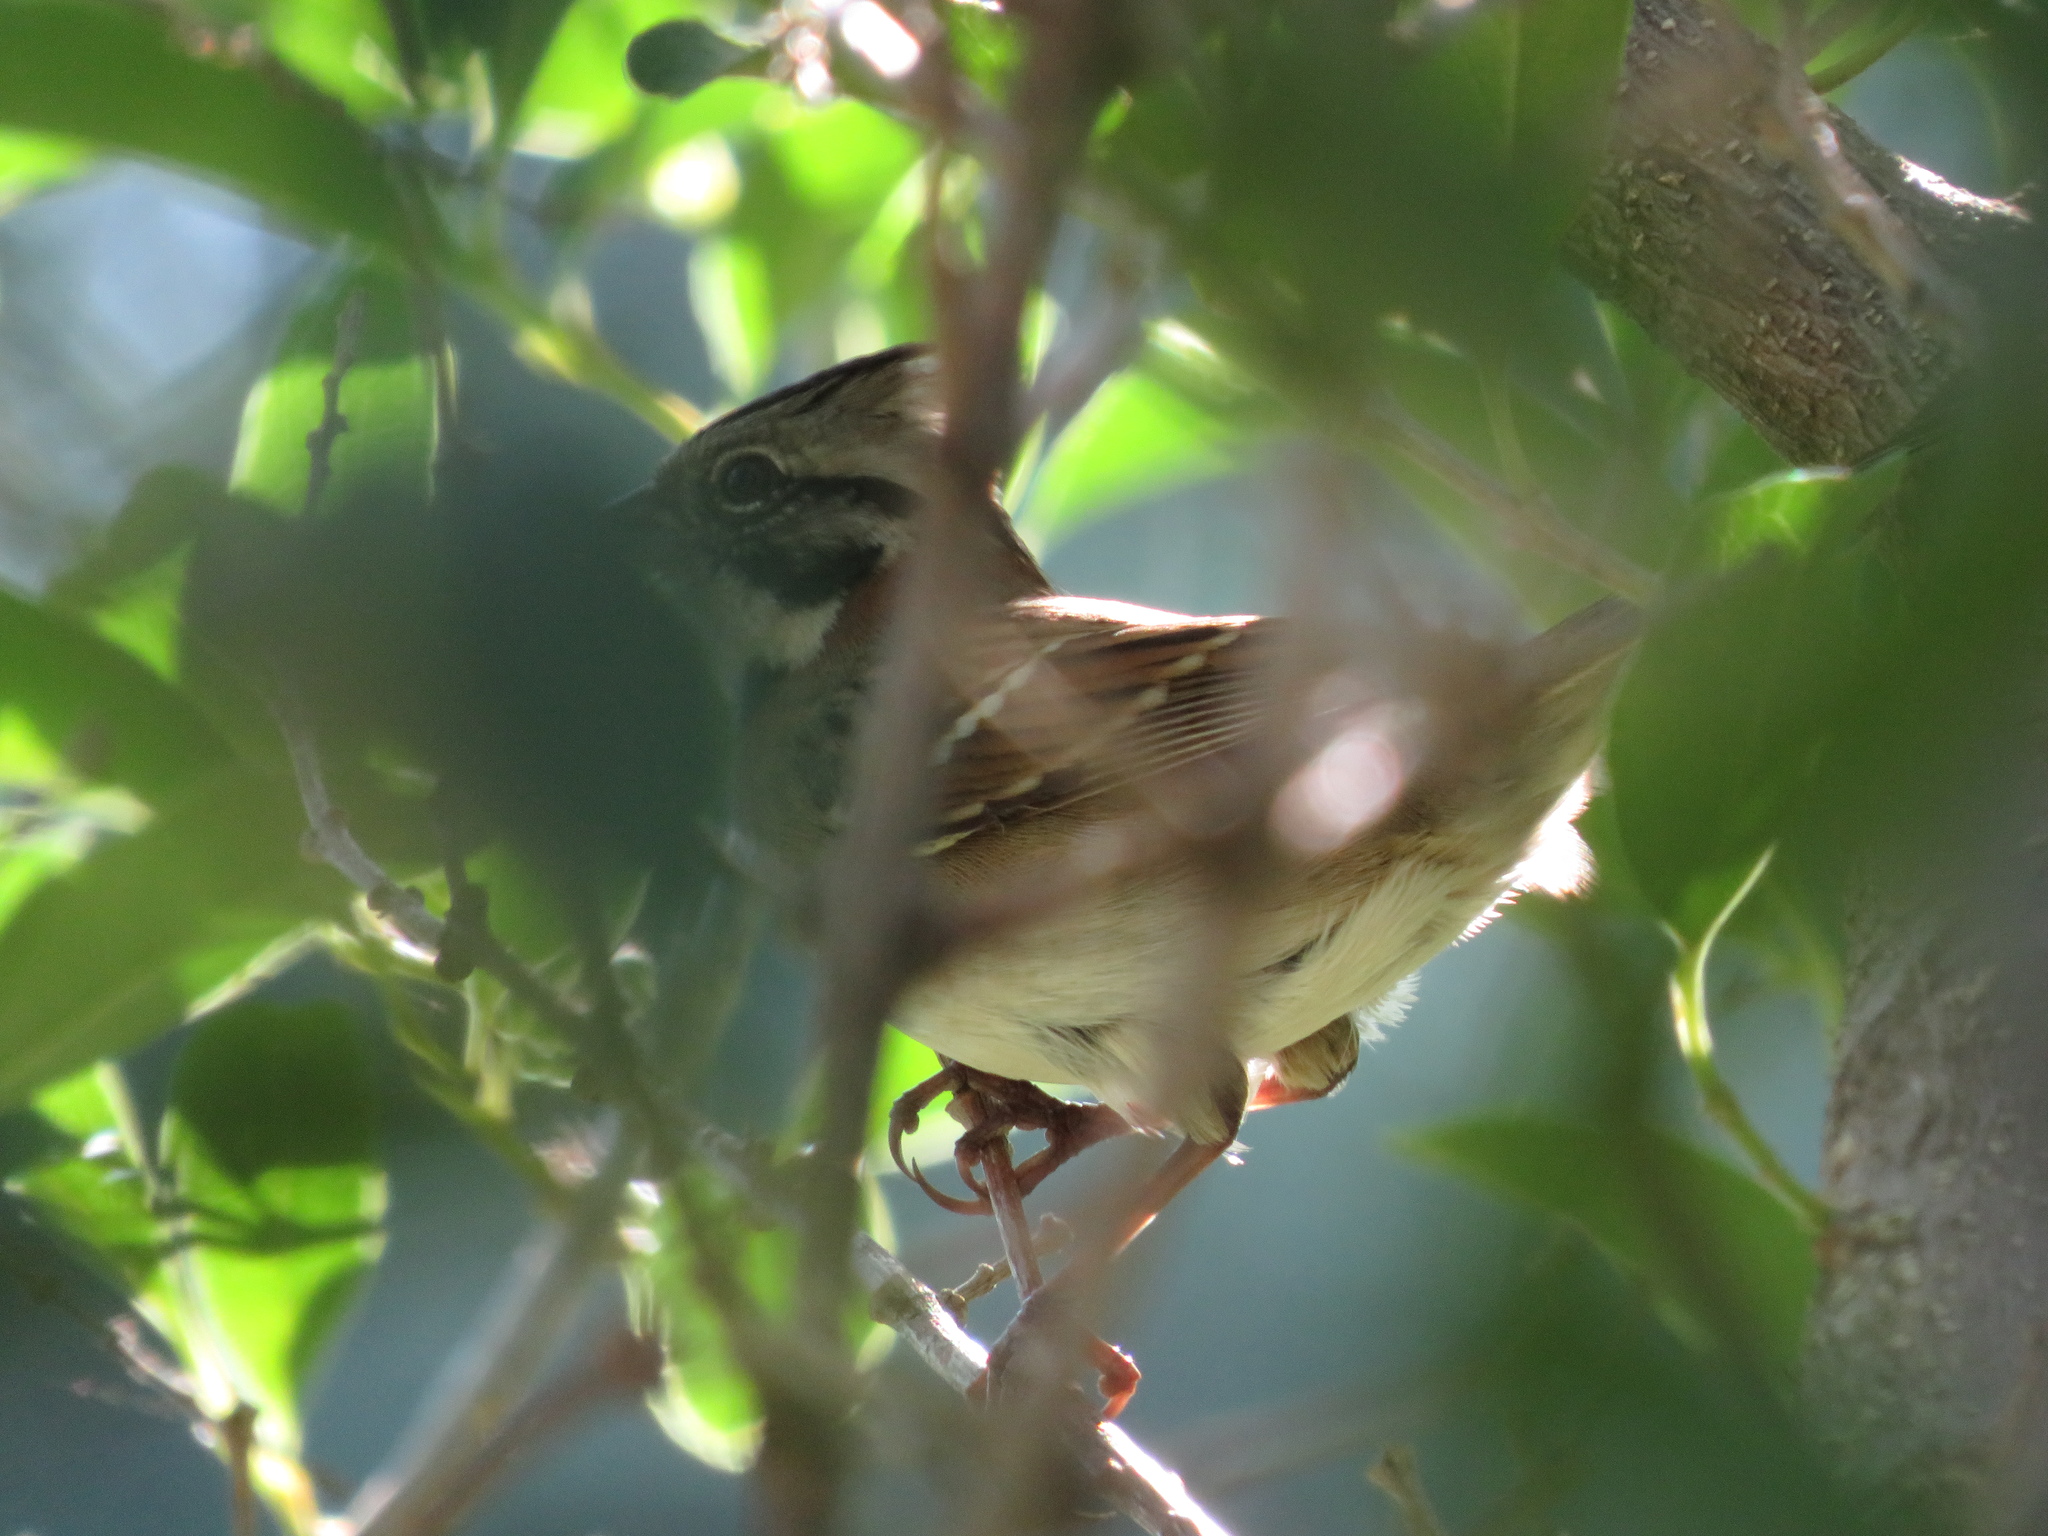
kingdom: Animalia
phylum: Chordata
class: Aves
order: Passeriformes
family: Passerellidae
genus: Zonotrichia
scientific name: Zonotrichia capensis
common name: Rufous-collared sparrow
